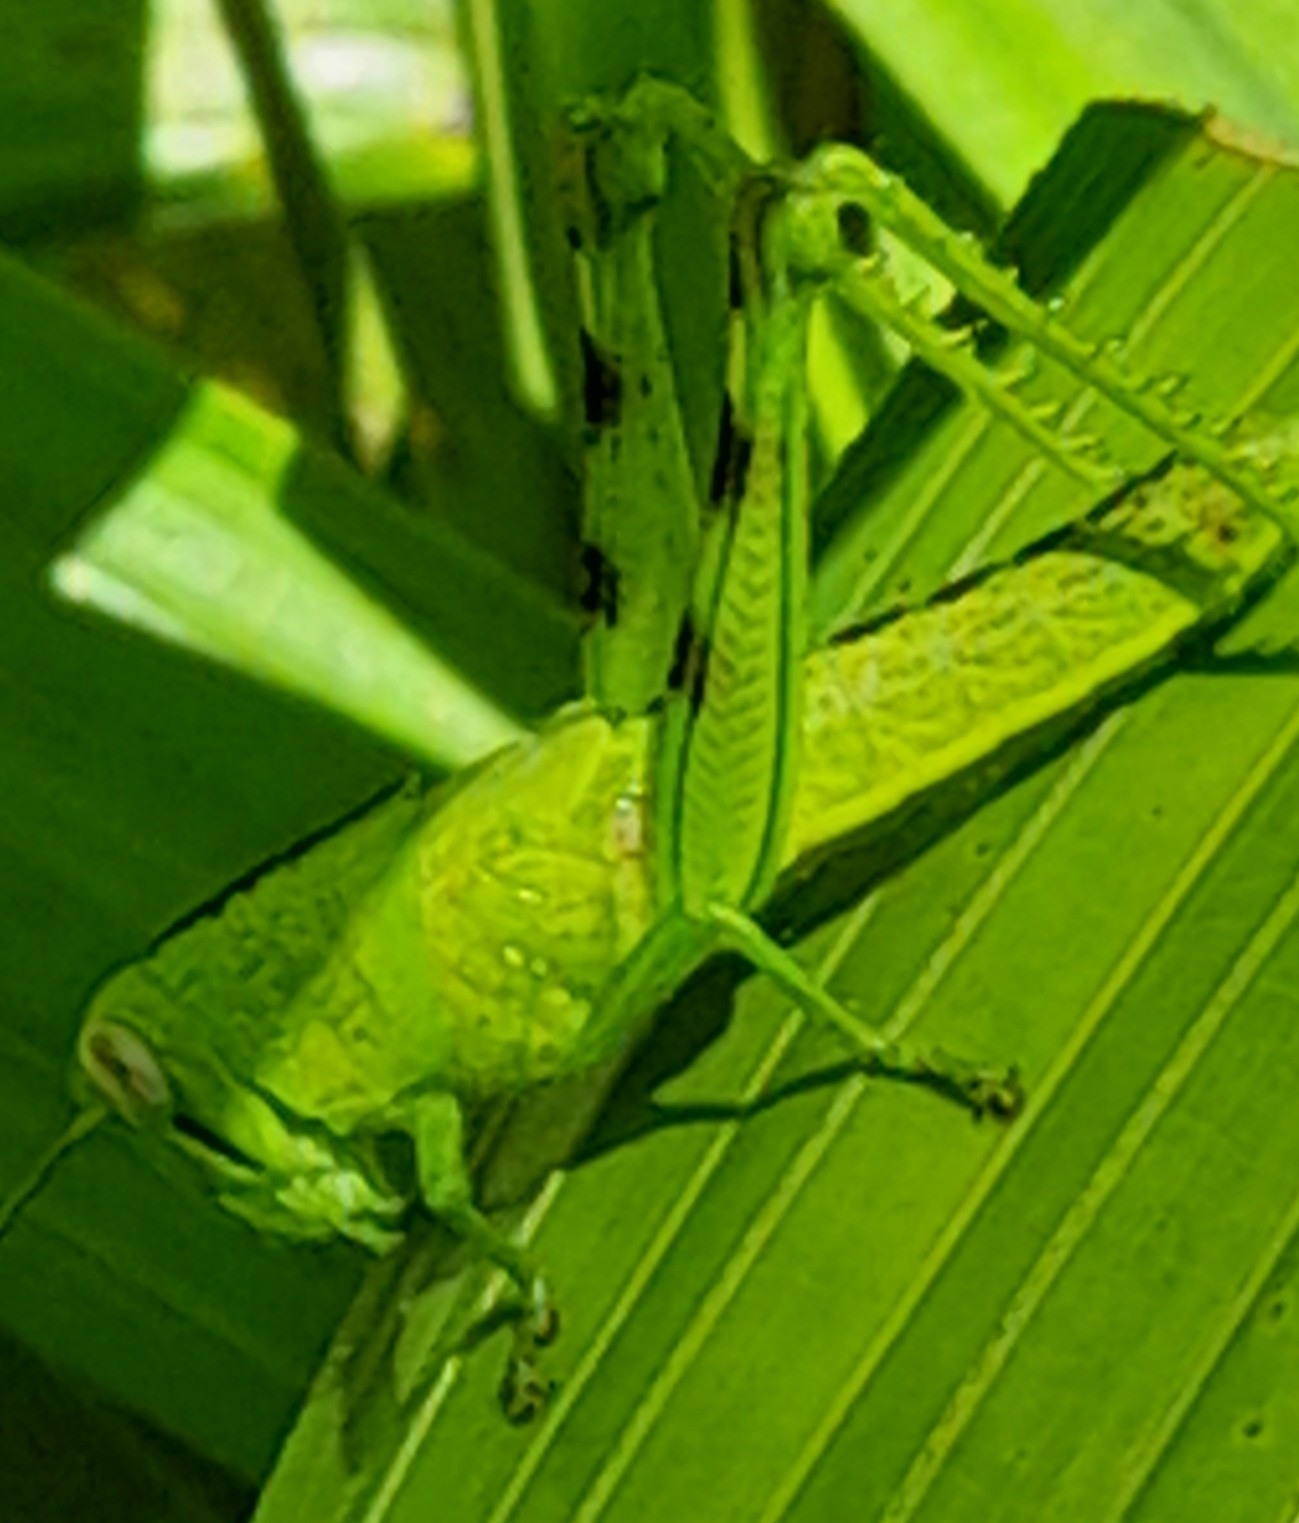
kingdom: Animalia
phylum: Arthropoda
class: Insecta
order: Orthoptera
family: Acrididae
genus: Valanga
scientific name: Valanga irregularis
